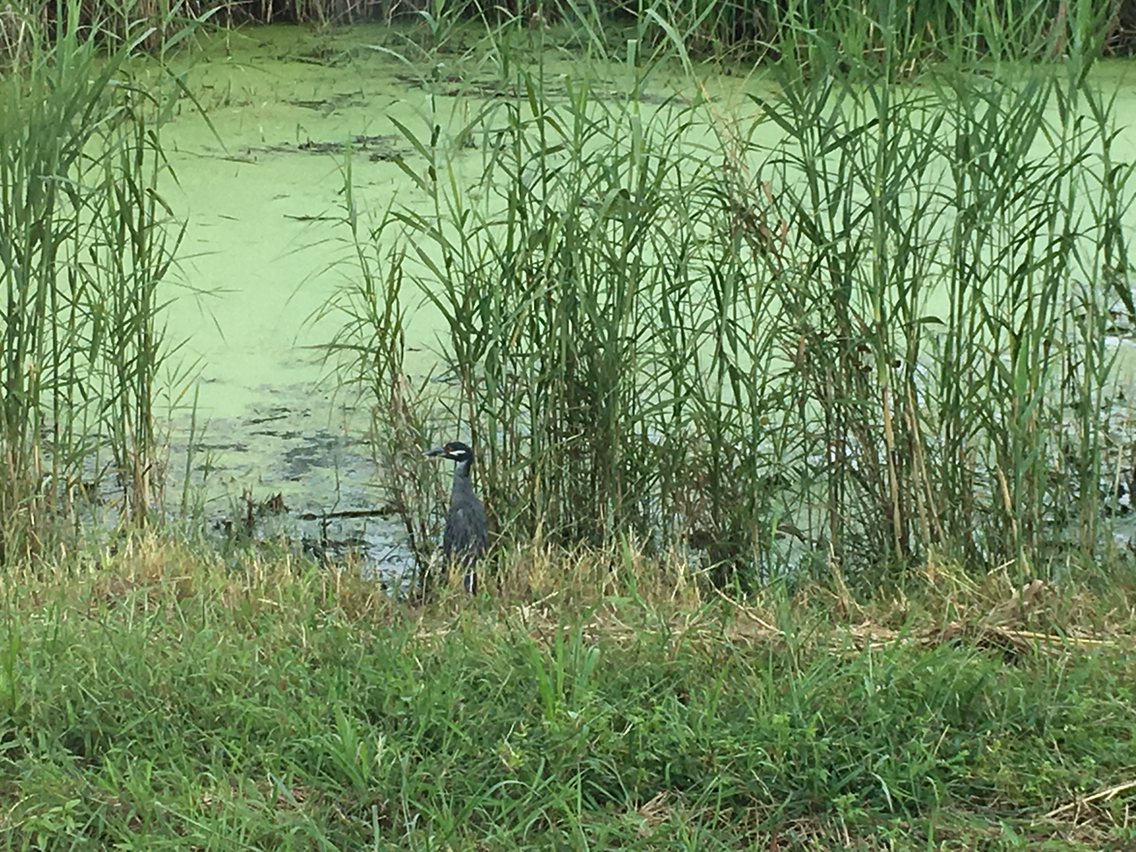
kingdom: Animalia
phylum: Chordata
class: Aves
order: Pelecaniformes
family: Ardeidae
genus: Nyctanassa
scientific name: Nyctanassa violacea
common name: Yellow-crowned night heron
